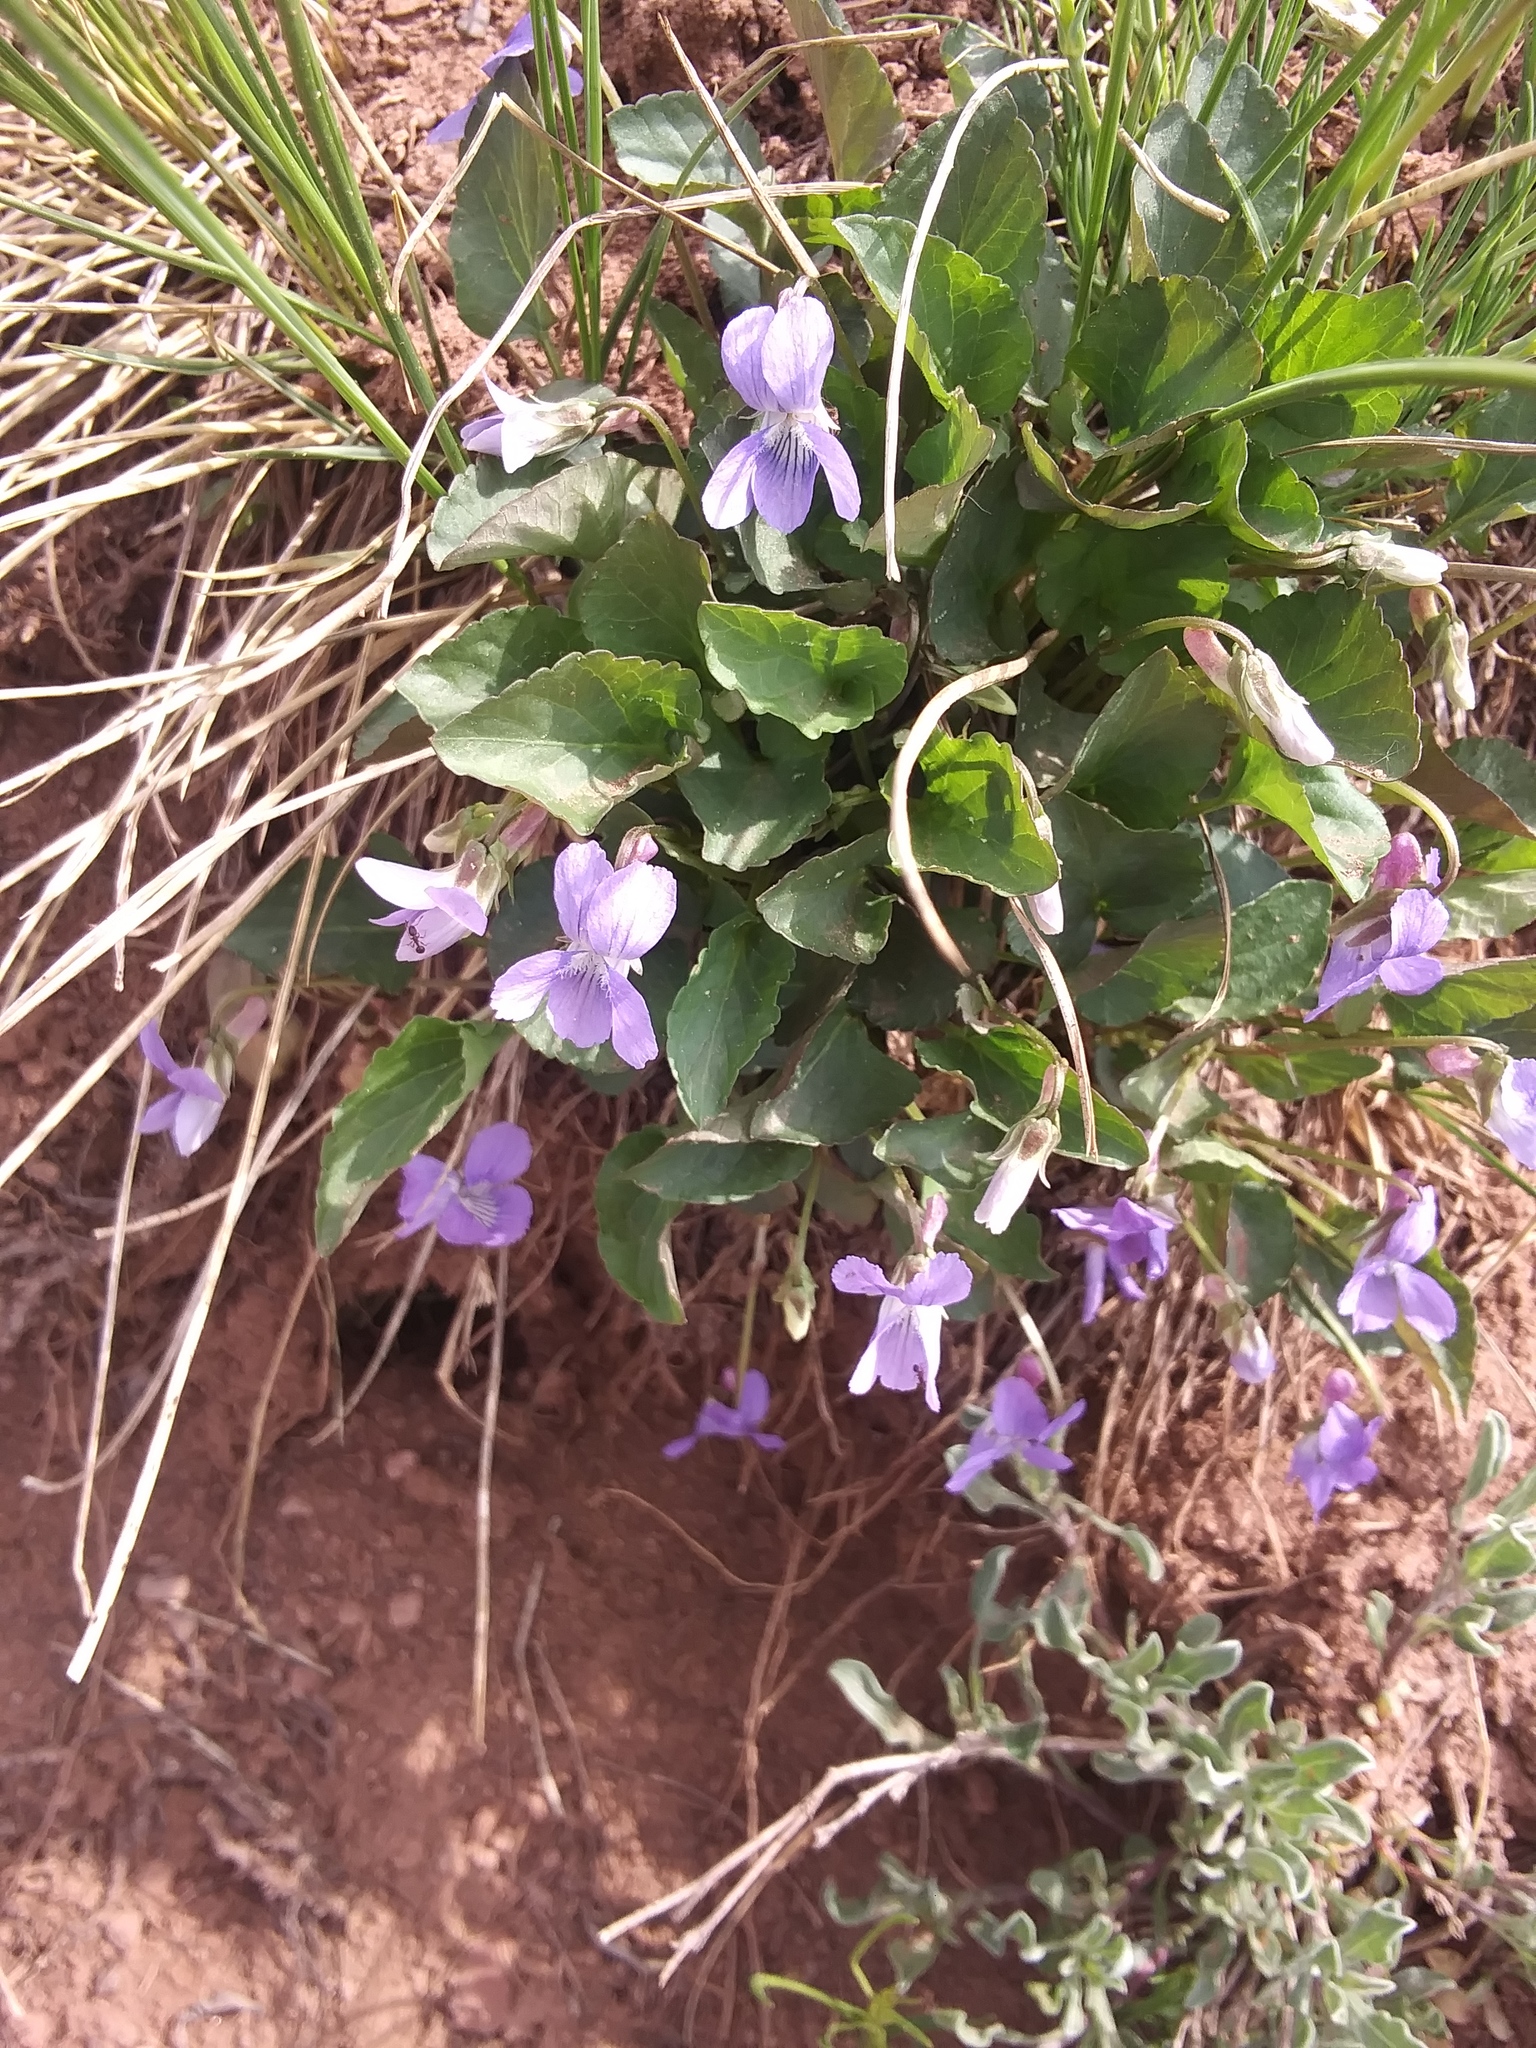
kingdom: Plantae
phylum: Tracheophyta
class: Magnoliopsida
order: Malpighiales
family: Violaceae
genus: Viola
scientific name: Viola adunca
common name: Sand violet
